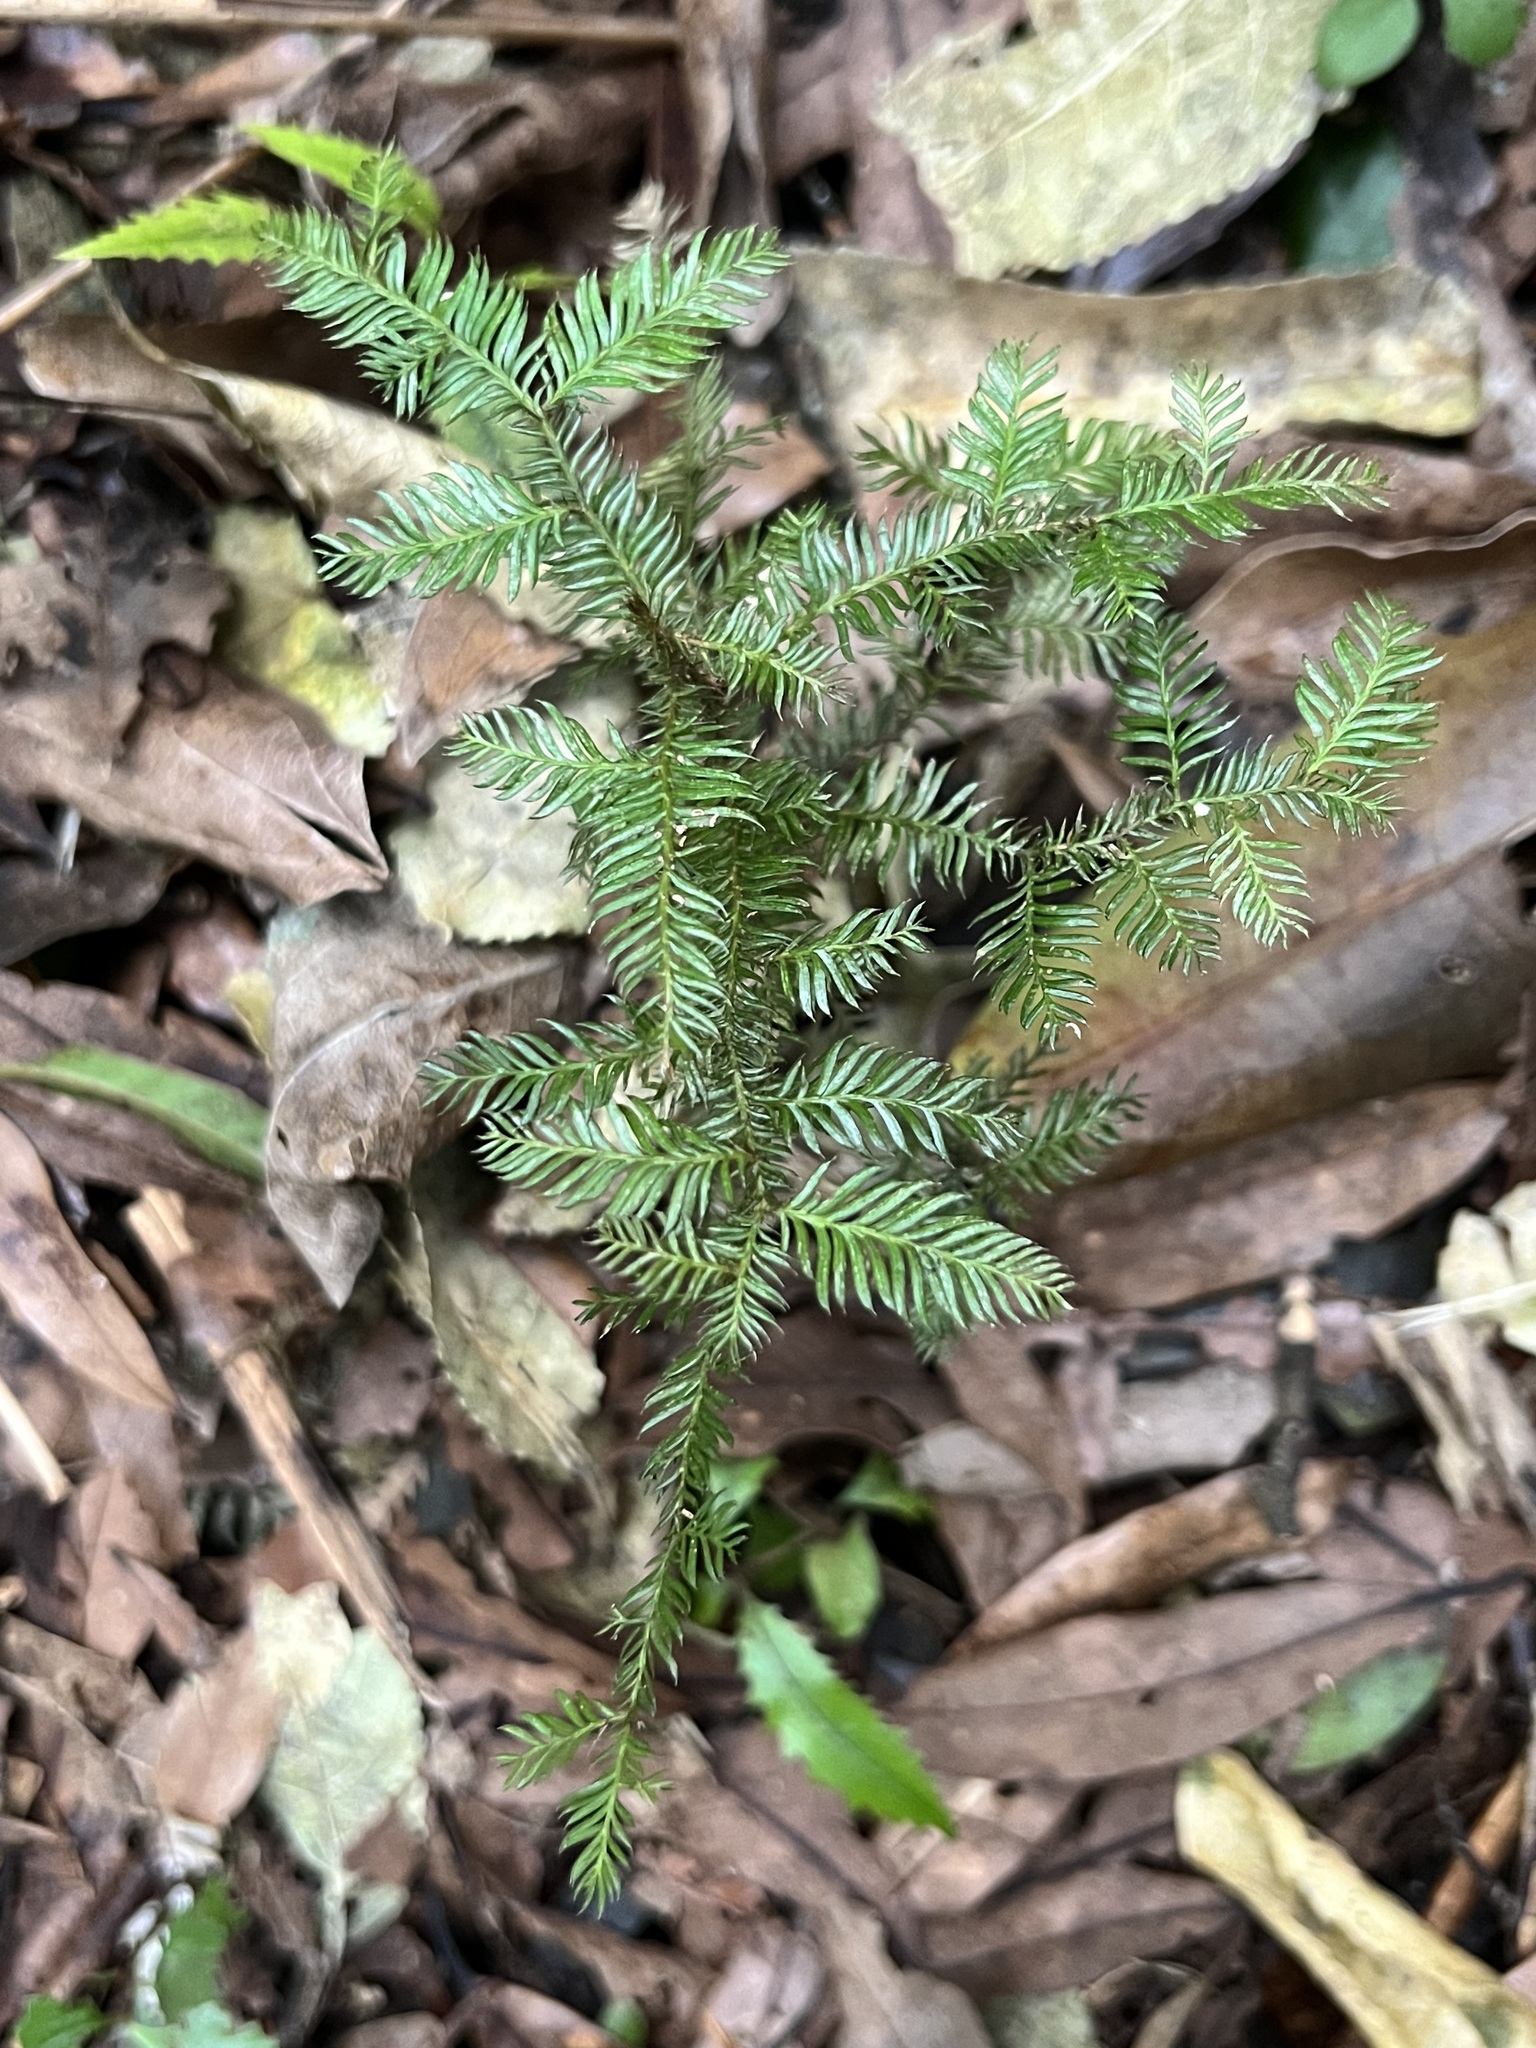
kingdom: Plantae
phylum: Tracheophyta
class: Pinopsida
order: Pinales
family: Podocarpaceae
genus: Dacrycarpus
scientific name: Dacrycarpus dacrydioides
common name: White pine
